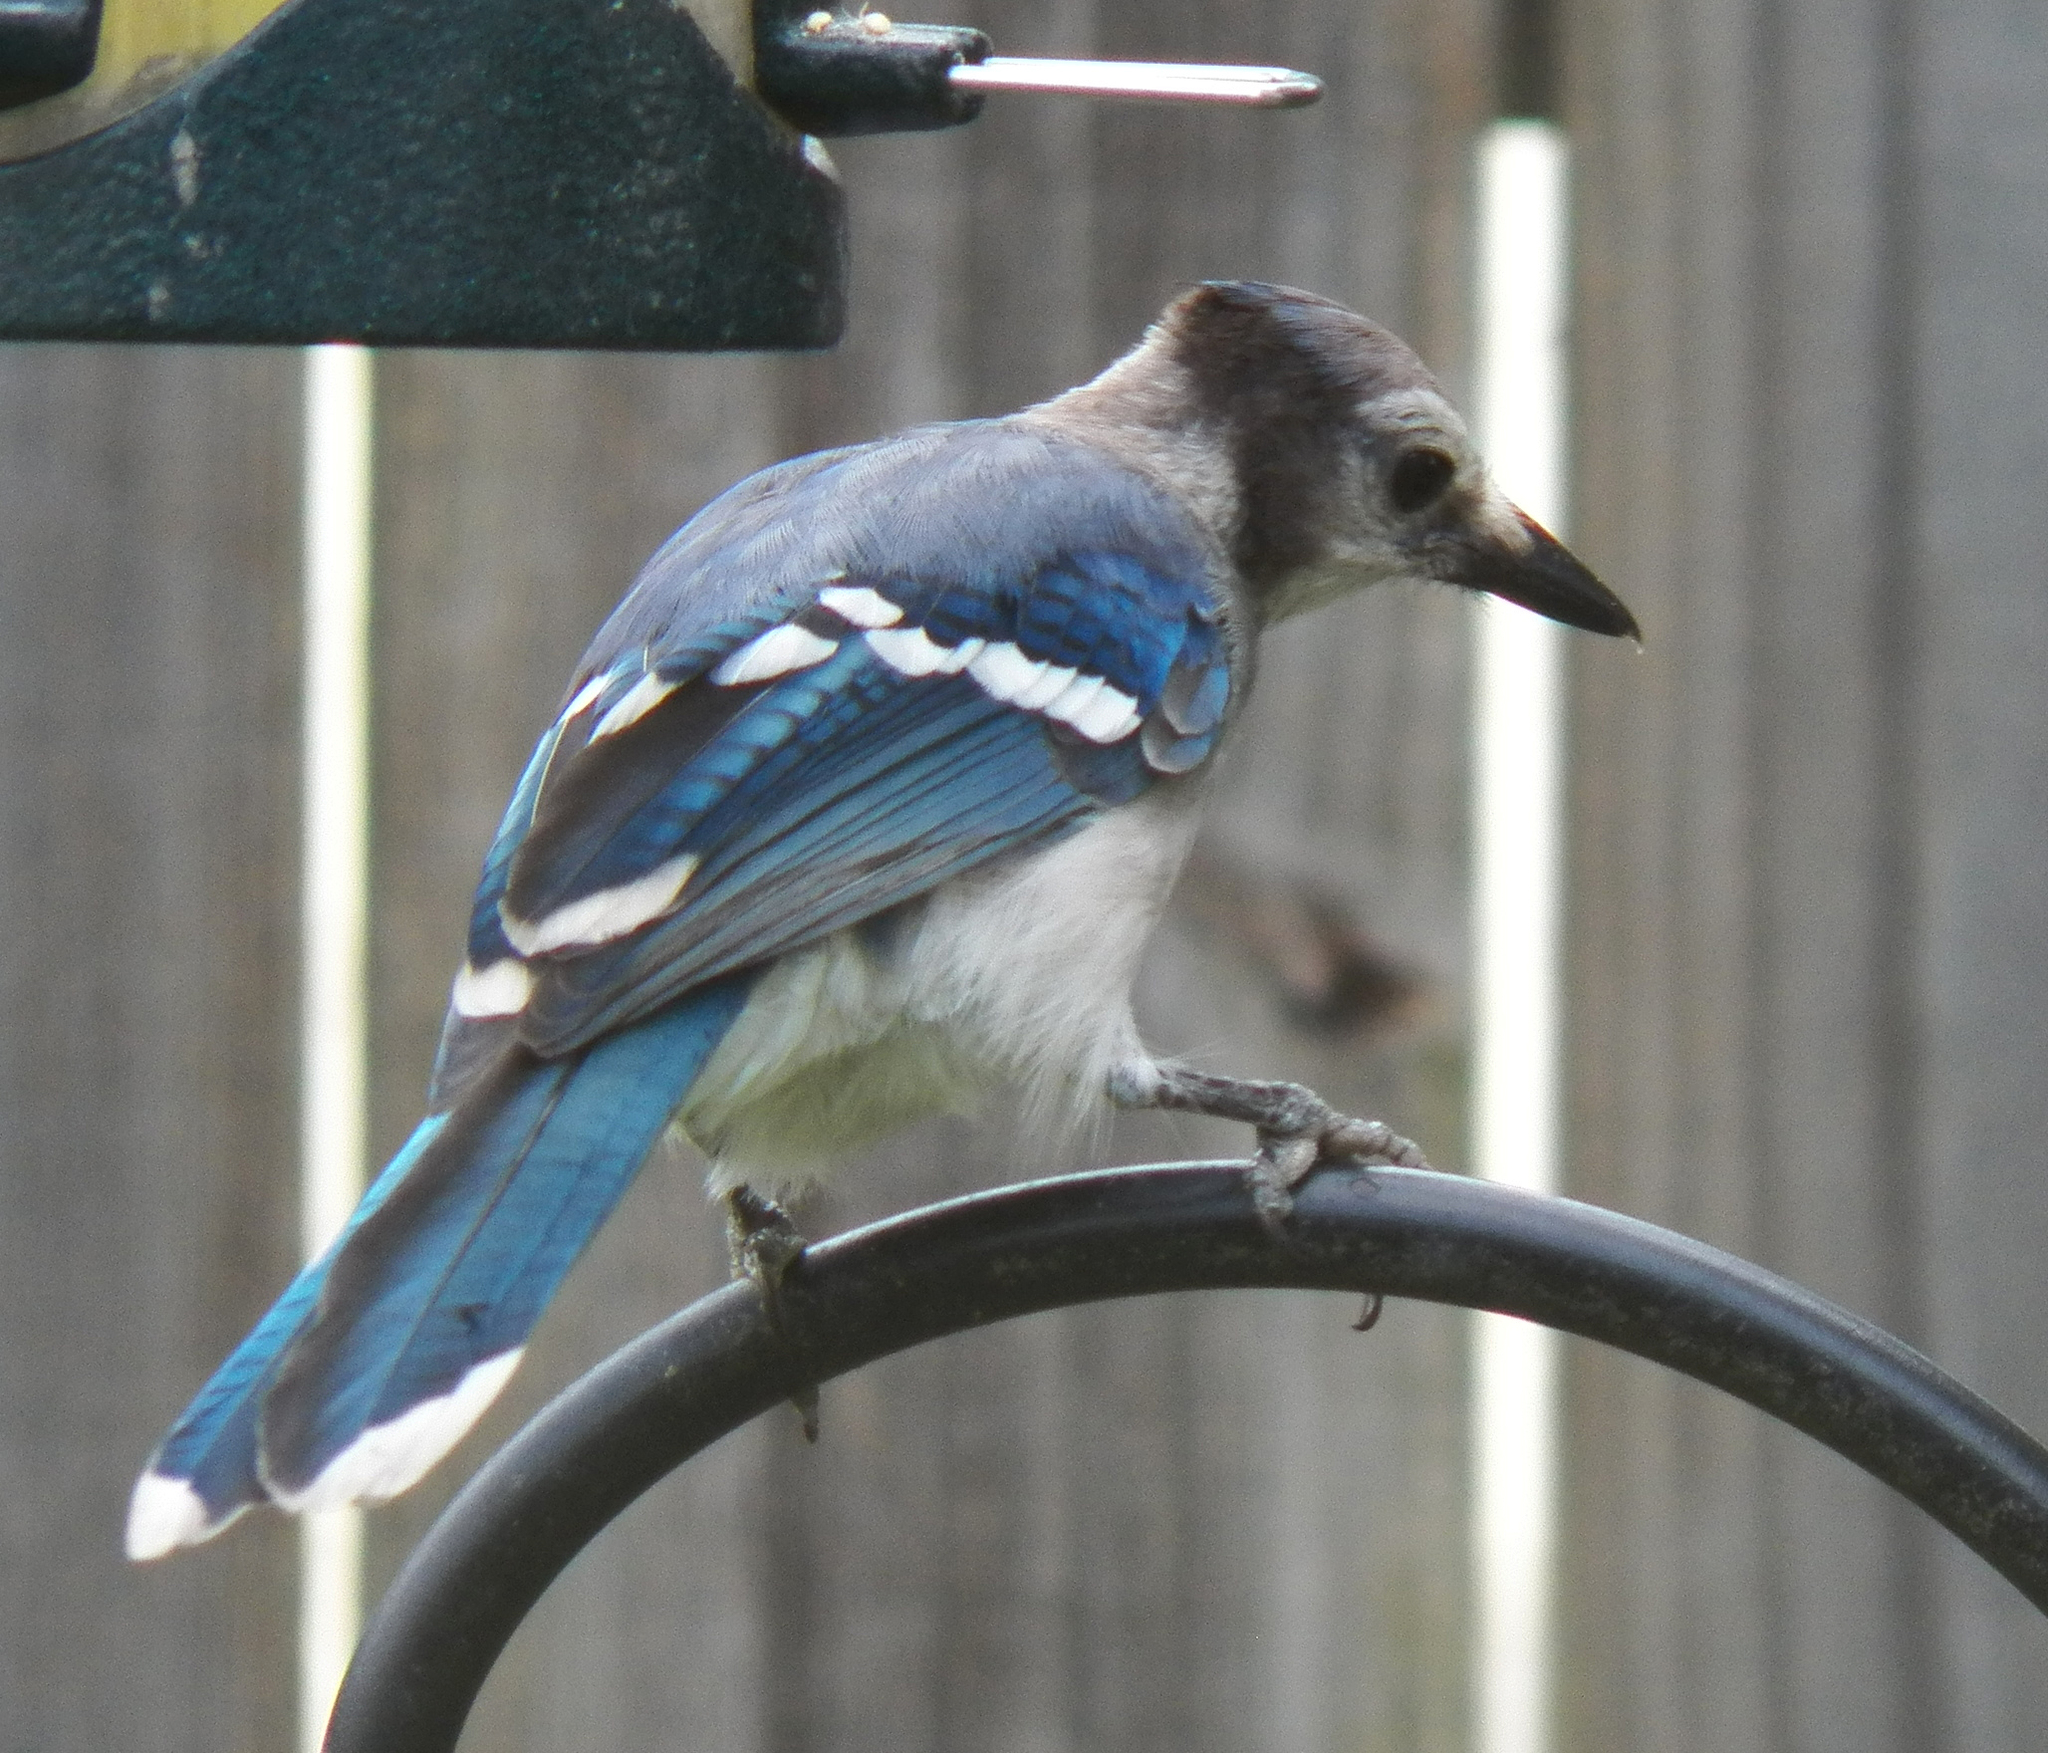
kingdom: Animalia
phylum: Chordata
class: Aves
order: Passeriformes
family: Corvidae
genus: Cyanocitta
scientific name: Cyanocitta cristata
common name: Blue jay
